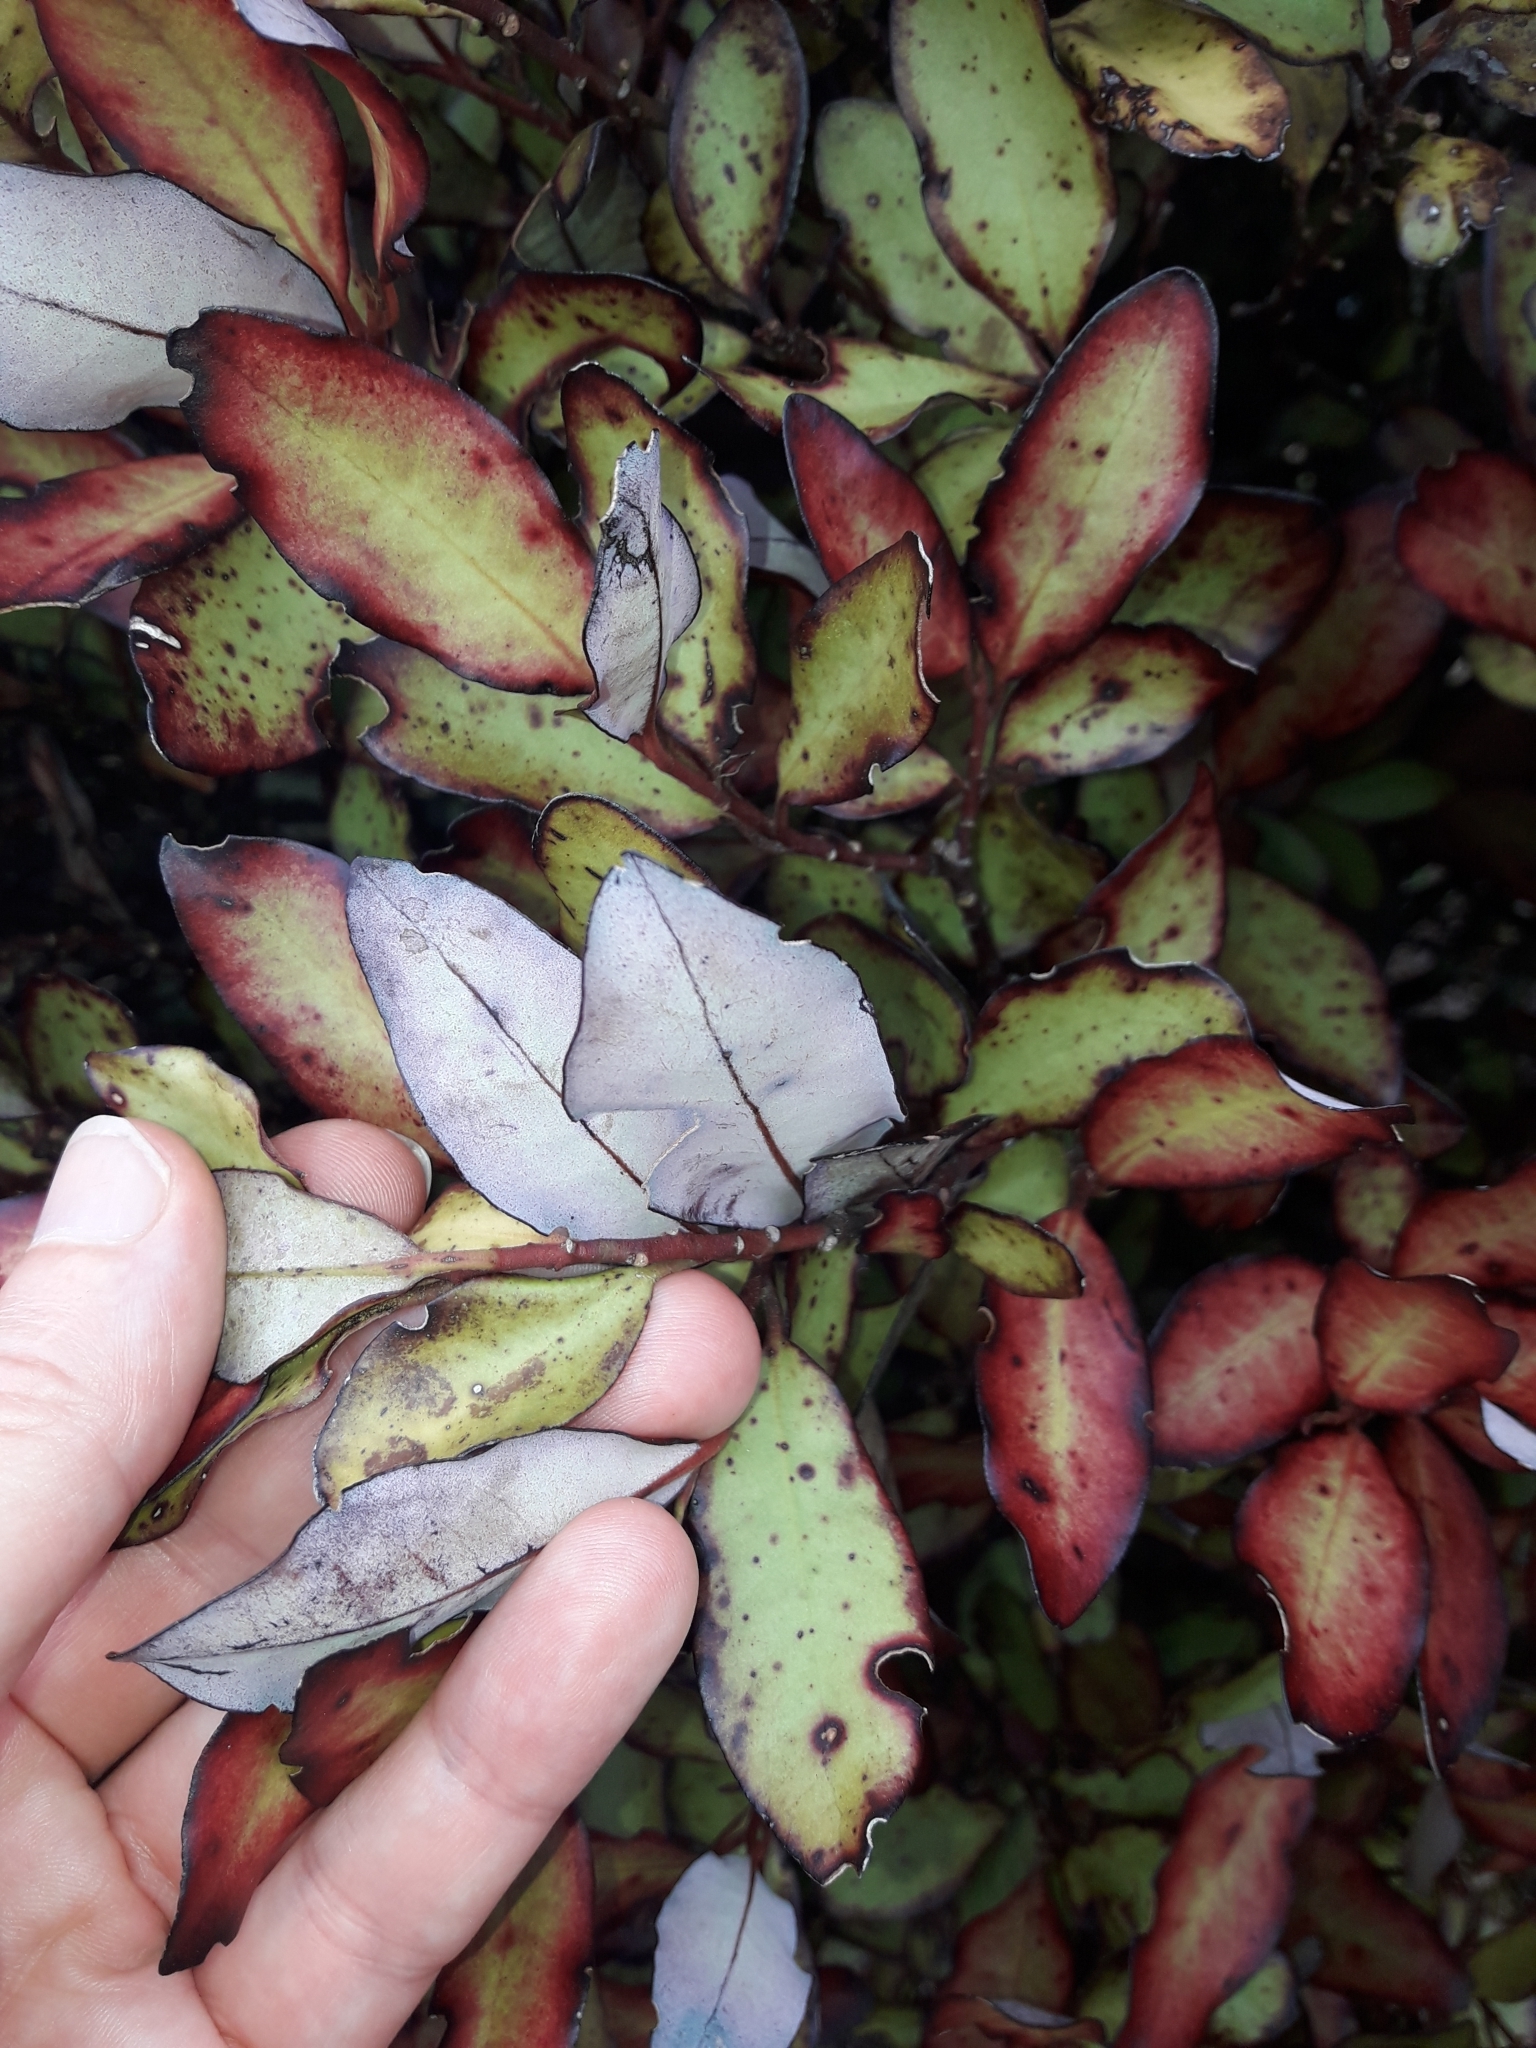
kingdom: Plantae
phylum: Tracheophyta
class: Magnoliopsida
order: Canellales
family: Winteraceae
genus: Pseudowintera
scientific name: Pseudowintera colorata
